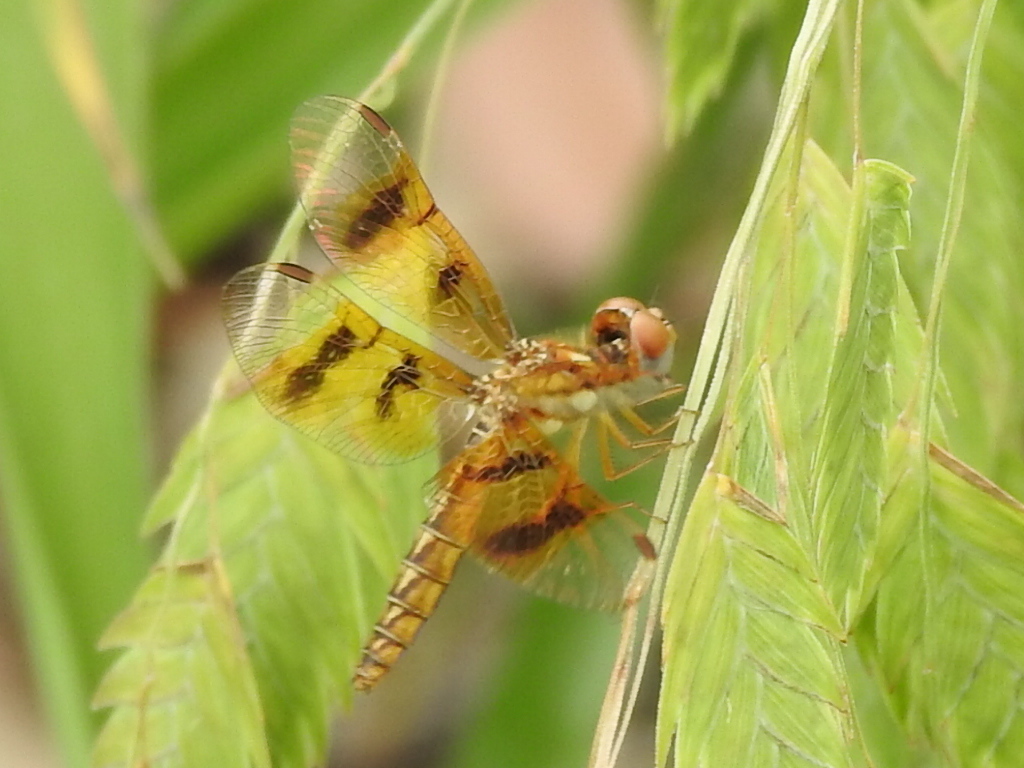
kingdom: Animalia
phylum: Arthropoda
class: Insecta
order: Odonata
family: Libellulidae
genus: Perithemis
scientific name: Perithemis tenera
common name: Eastern amberwing
